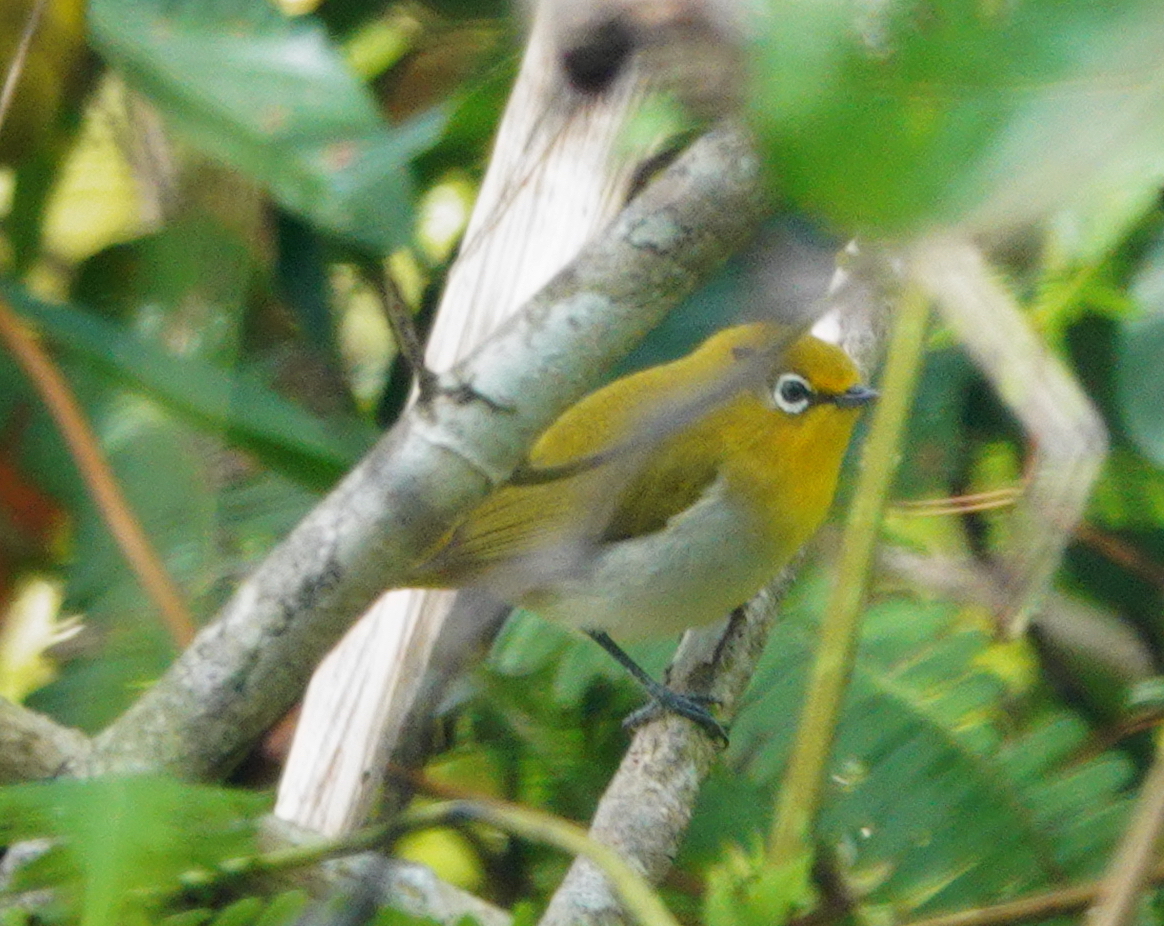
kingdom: Animalia
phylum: Chordata
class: Aves
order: Passeriformes
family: Zosteropidae
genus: Zosterops
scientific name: Zosterops japonicus
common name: Japanese white-eye
